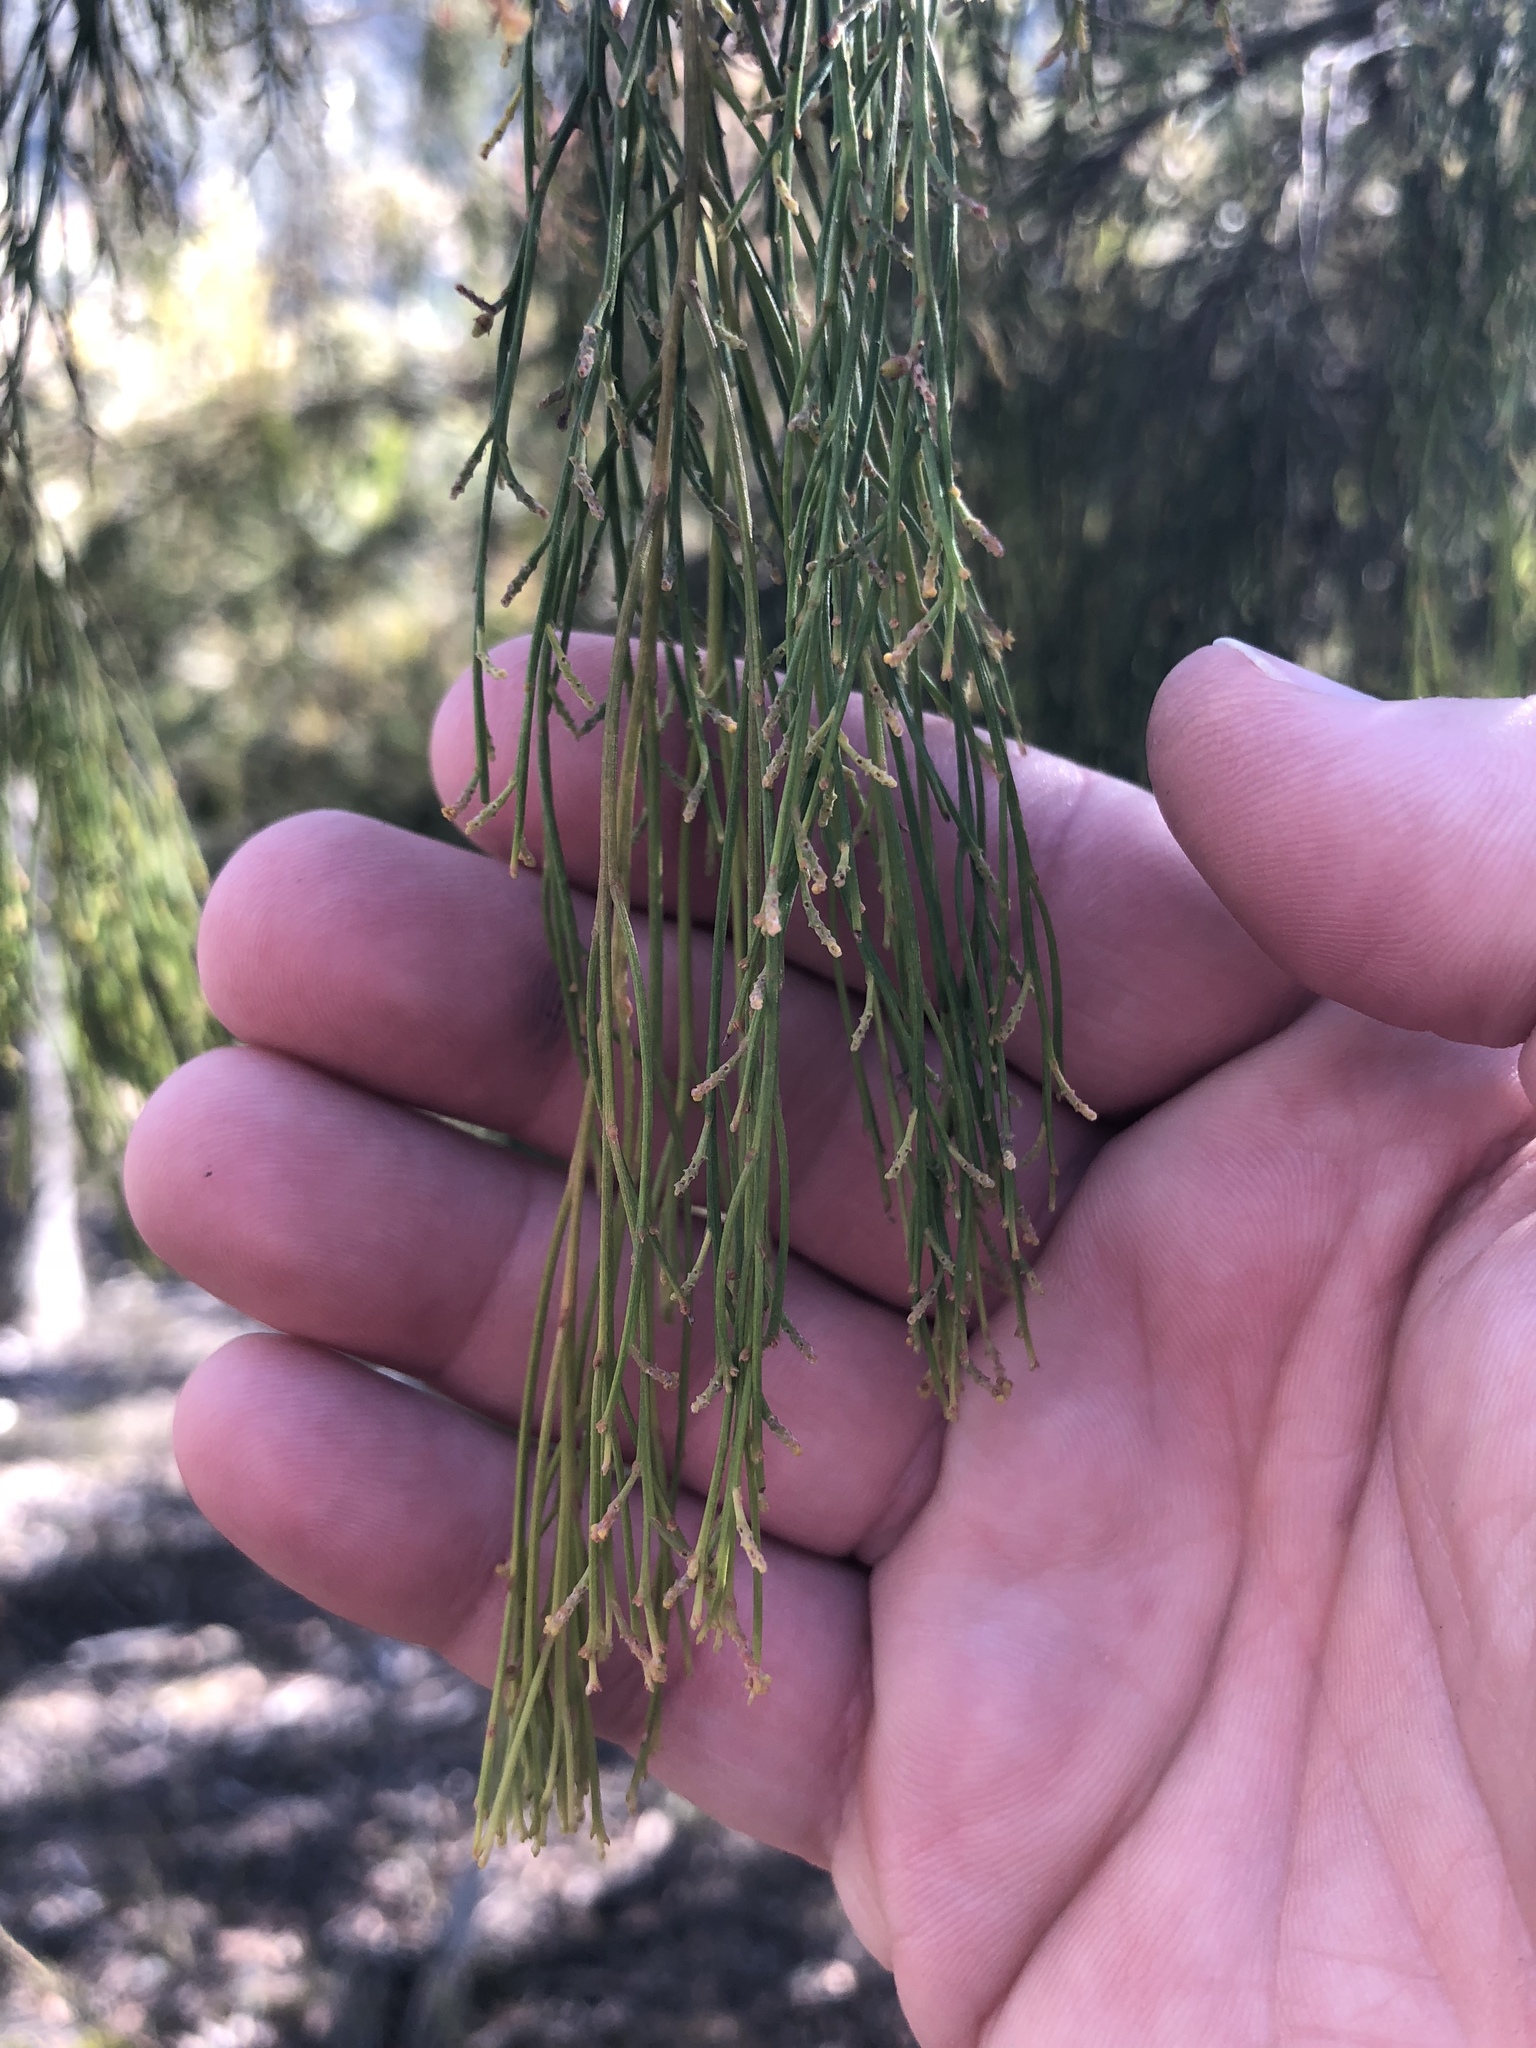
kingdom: Plantae
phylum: Tracheophyta
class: Magnoliopsida
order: Santalales
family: Santalaceae
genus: Exocarpos
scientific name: Exocarpos cupressiformis
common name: Cherry ballart
